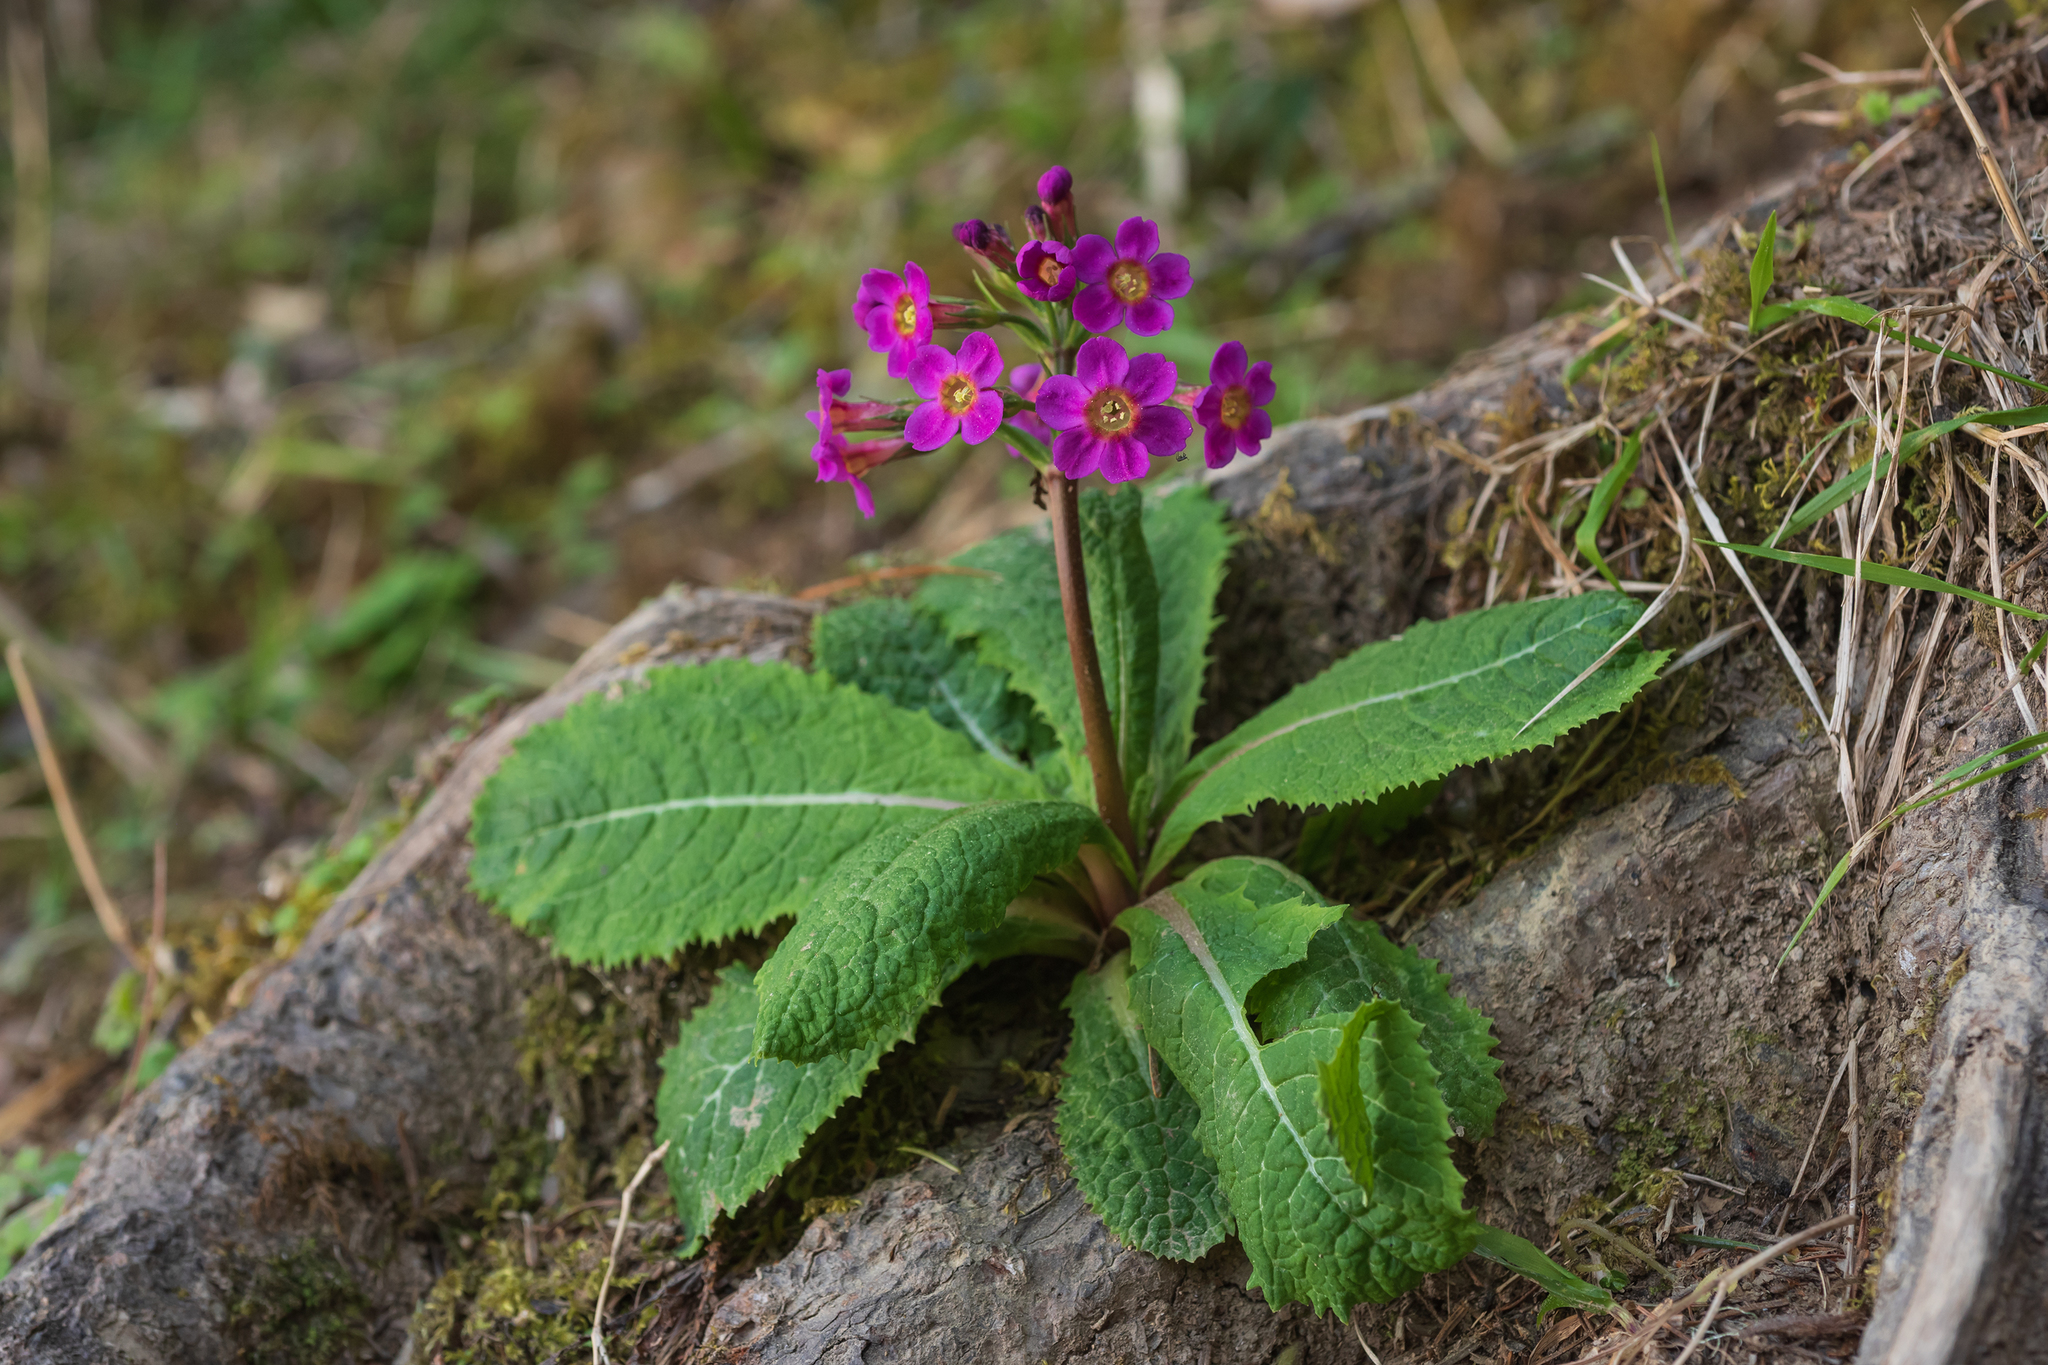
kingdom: Plantae
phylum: Tracheophyta
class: Magnoliopsida
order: Ericales
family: Primulaceae
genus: Primula
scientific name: Primula miyabeana
